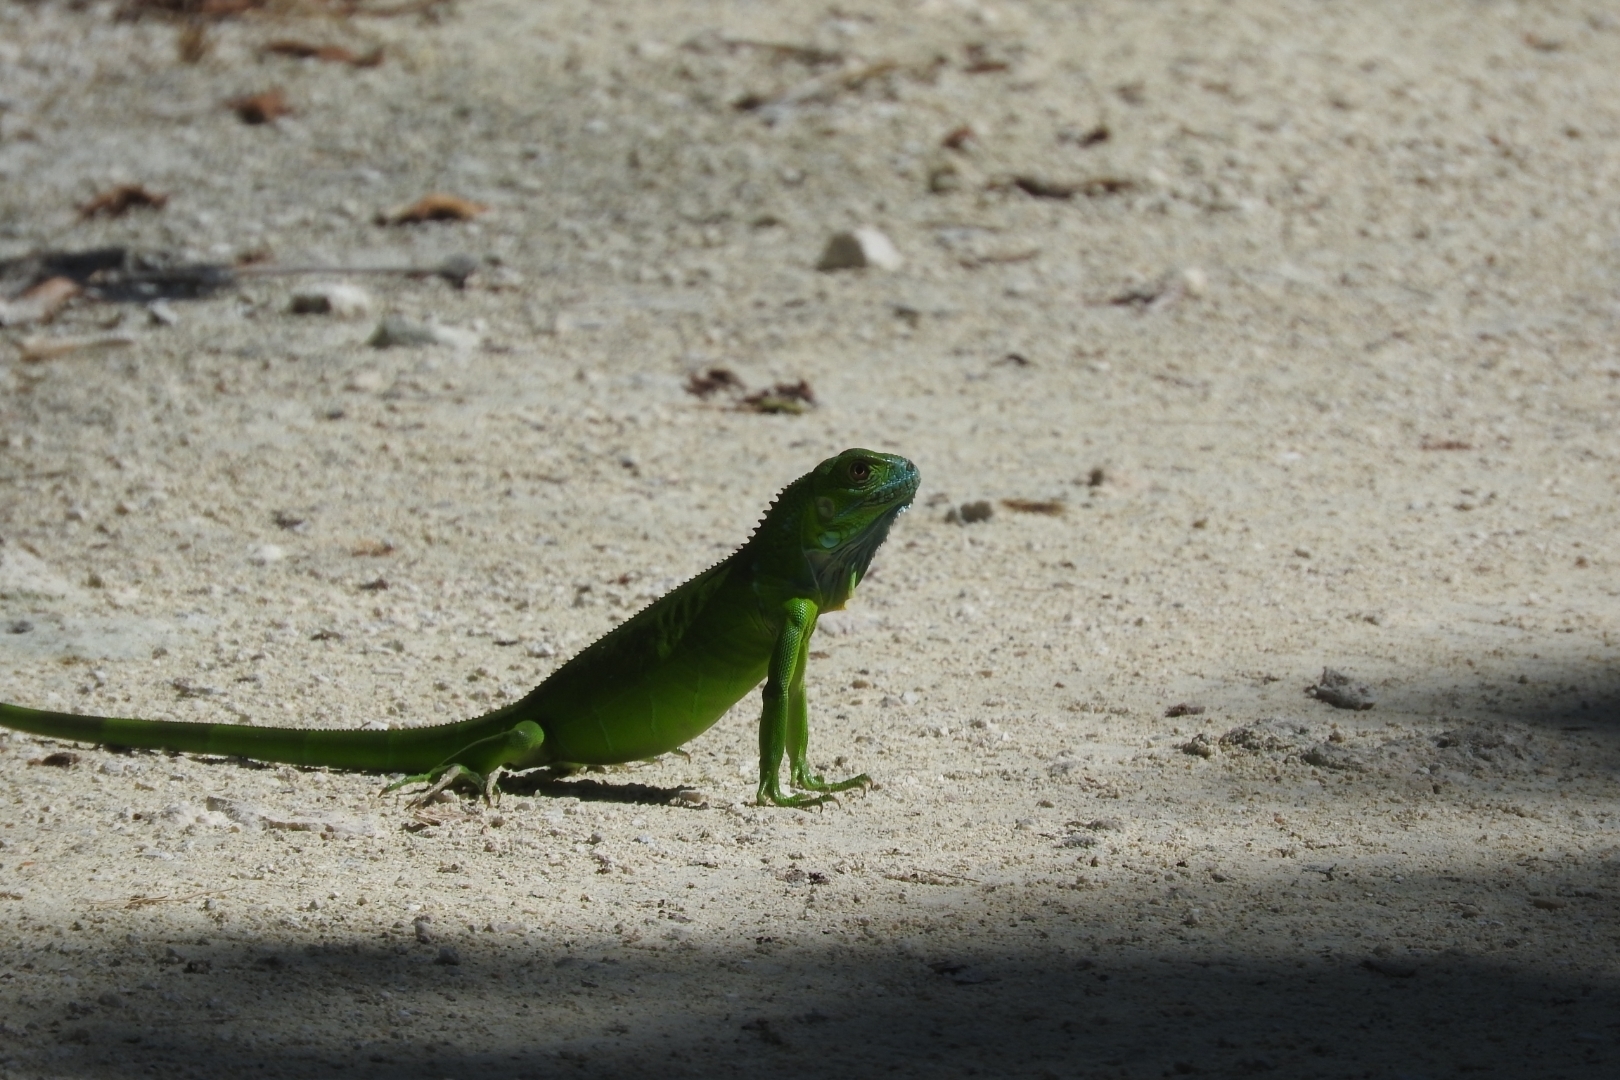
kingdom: Animalia
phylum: Chordata
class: Squamata
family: Iguanidae
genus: Iguana
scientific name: Iguana iguana
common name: Green iguana
